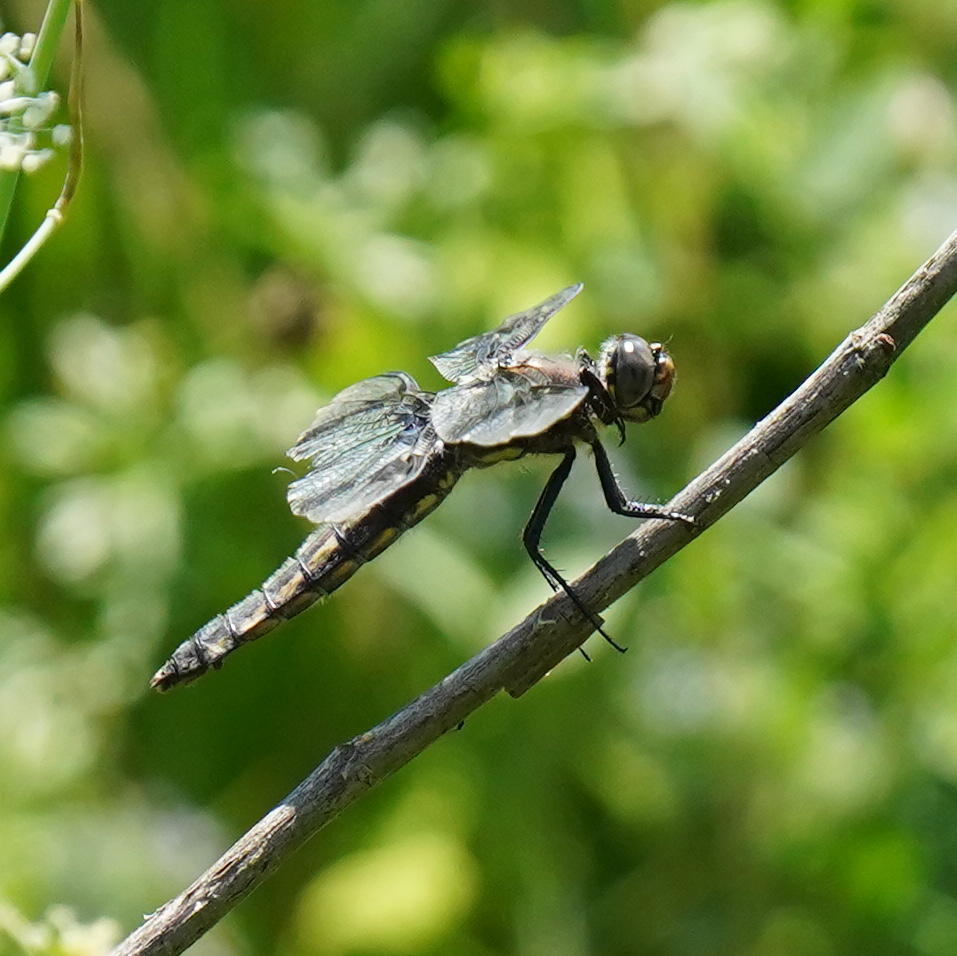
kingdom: Animalia
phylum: Arthropoda
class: Insecta
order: Odonata
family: Libellulidae
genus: Libellula
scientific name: Libellula forensis
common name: Eight-spotted skimmer
